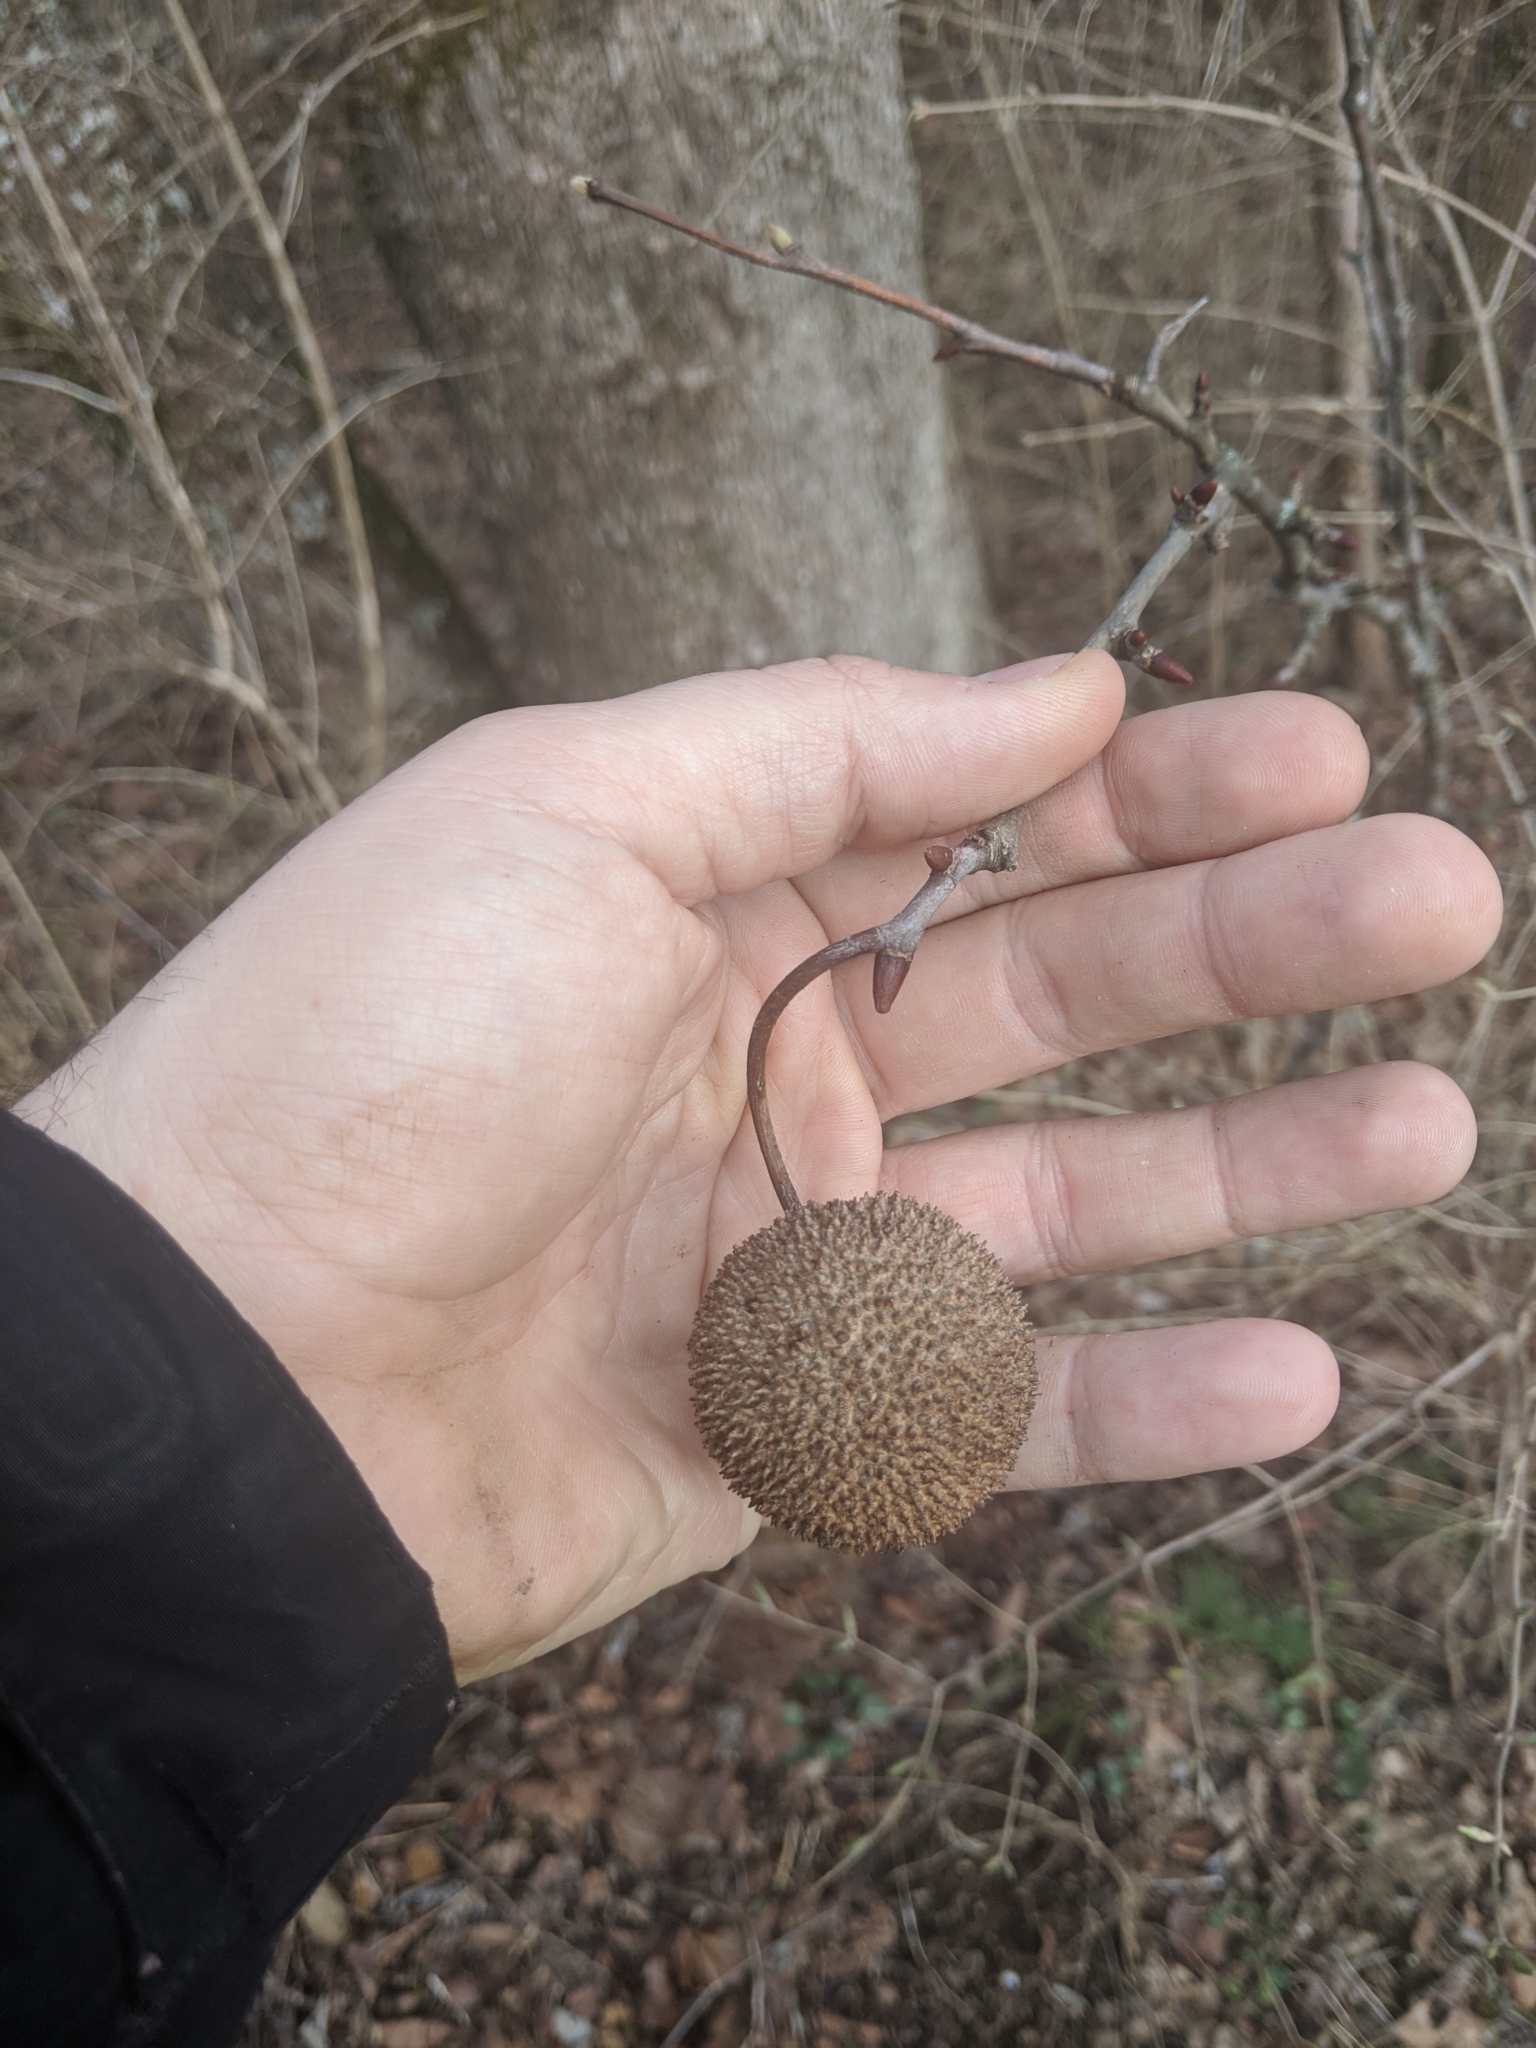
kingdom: Plantae
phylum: Tracheophyta
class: Magnoliopsida
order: Proteales
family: Platanaceae
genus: Platanus
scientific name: Platanus occidentalis
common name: American sycamore
